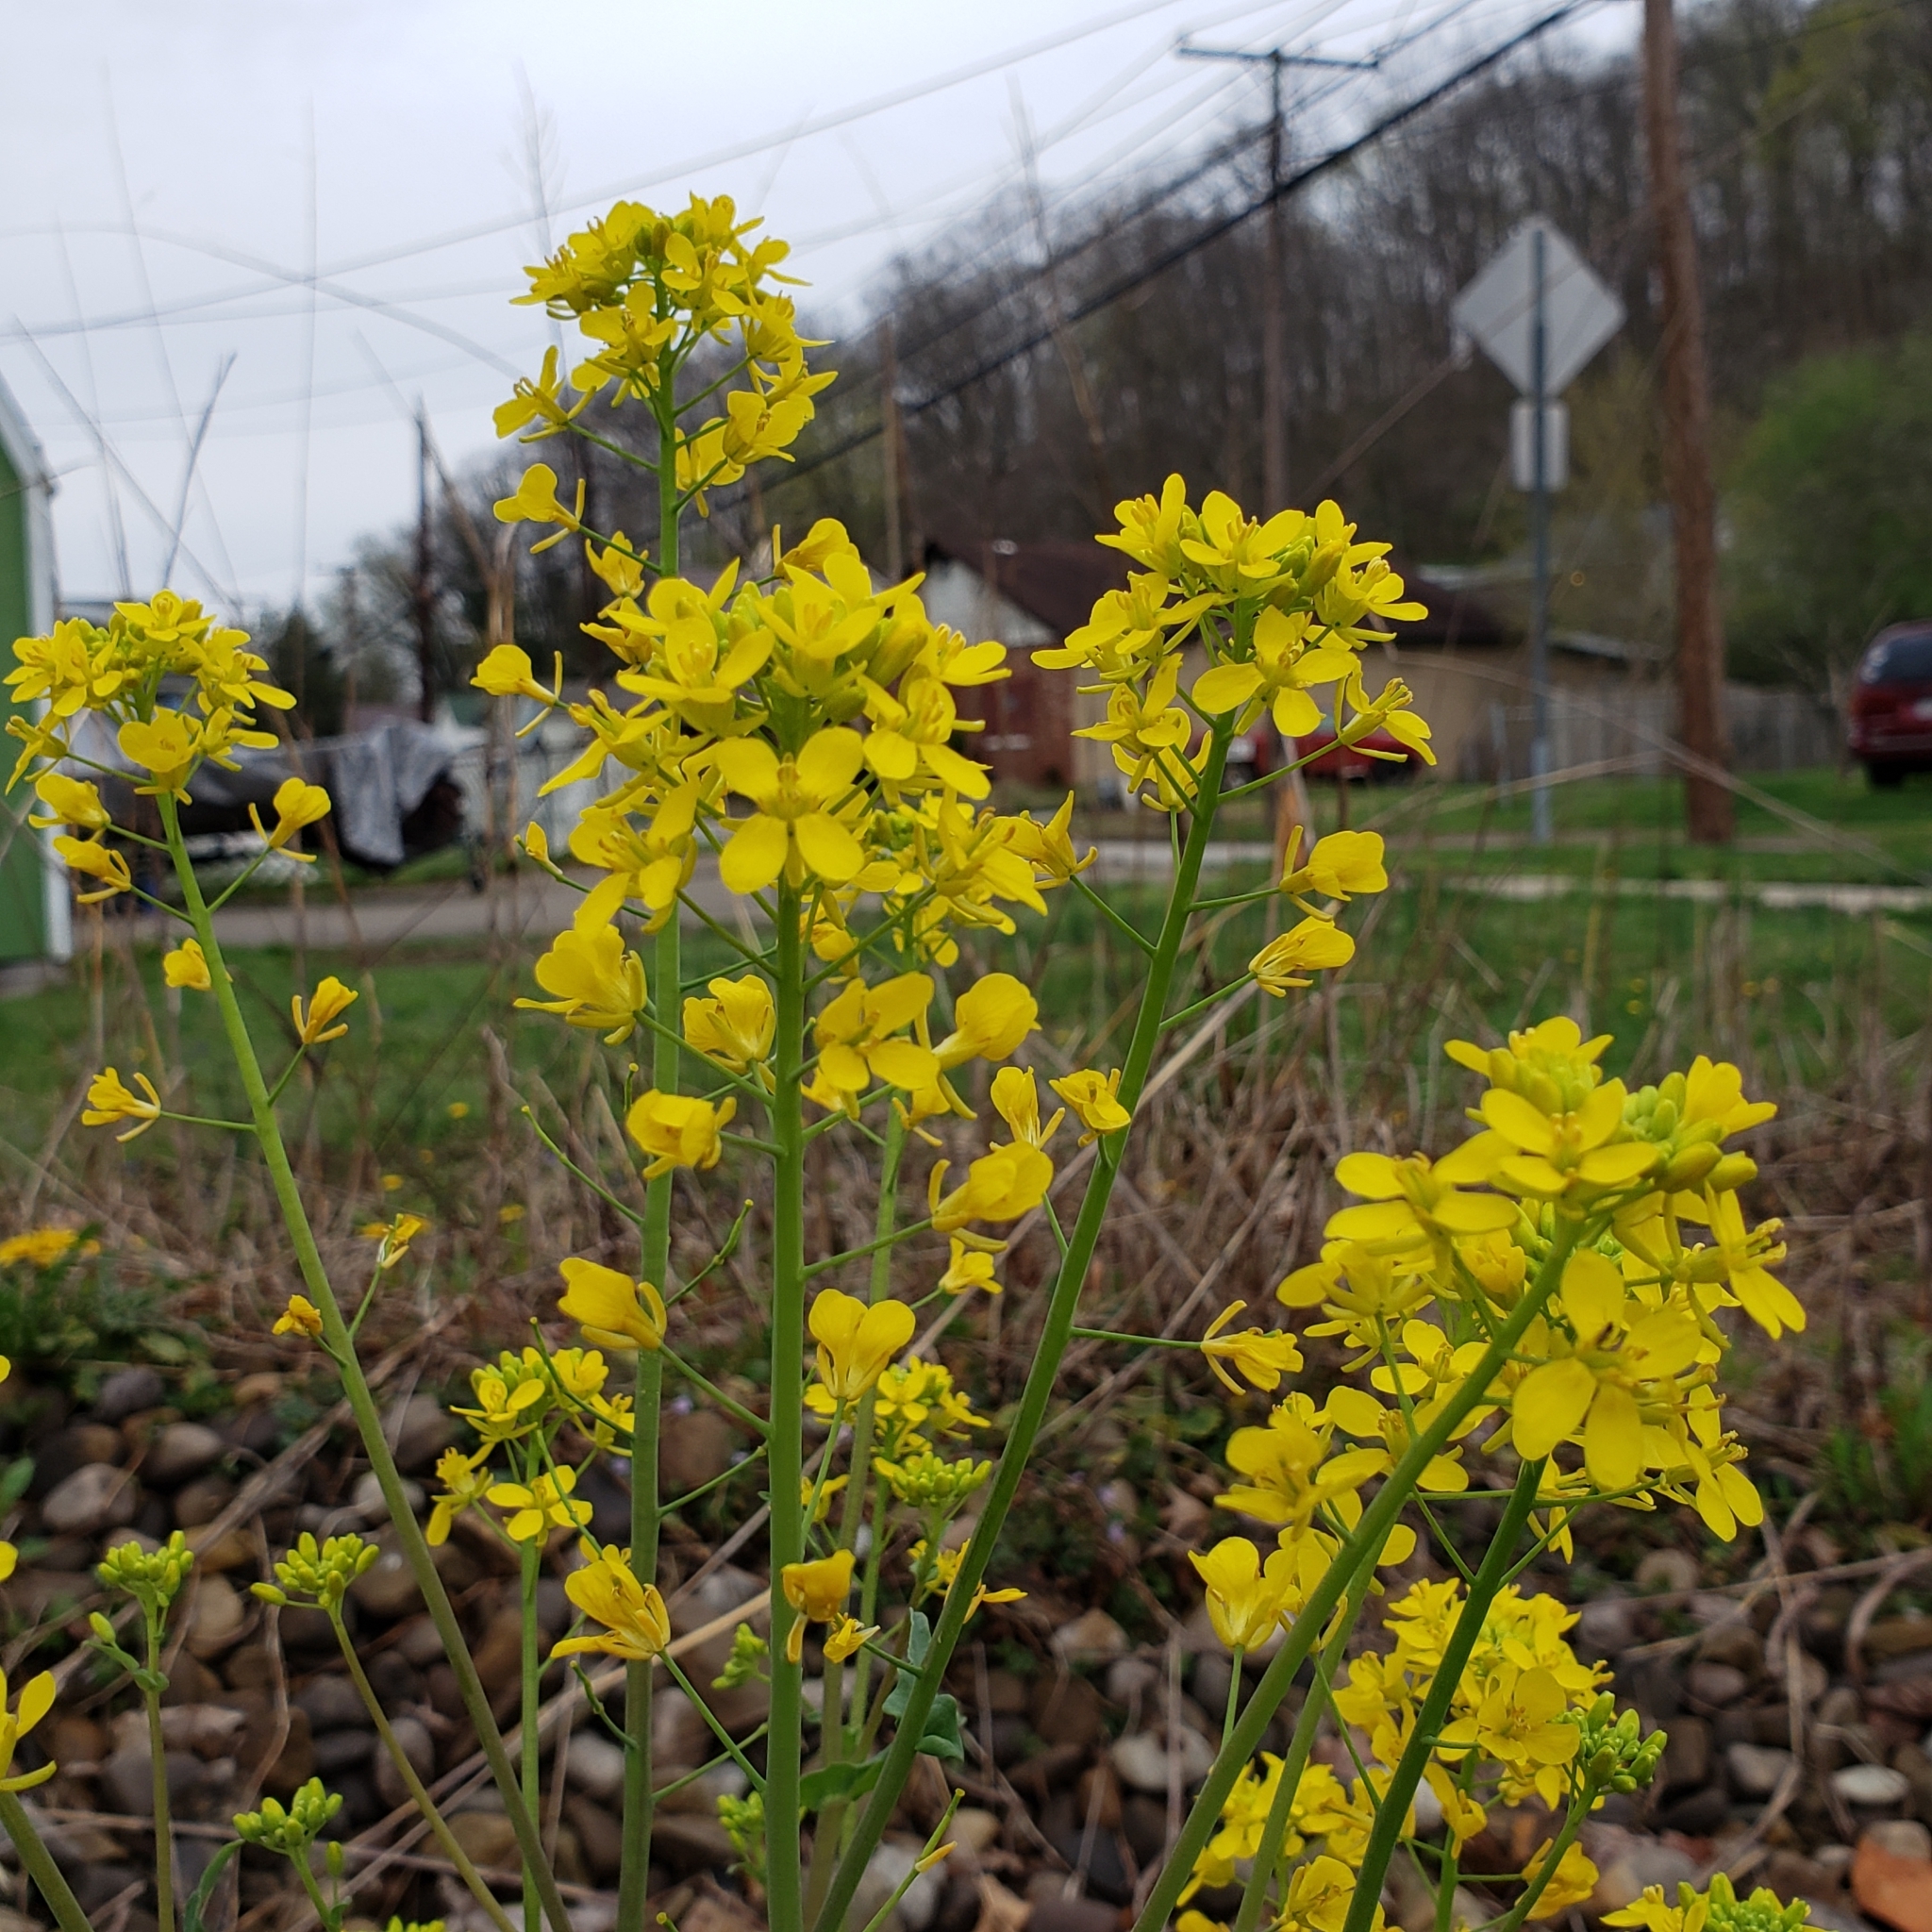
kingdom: Plantae
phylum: Tracheophyta
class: Magnoliopsida
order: Brassicales
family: Brassicaceae
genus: Brassica
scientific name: Brassica rapa
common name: Field mustard
